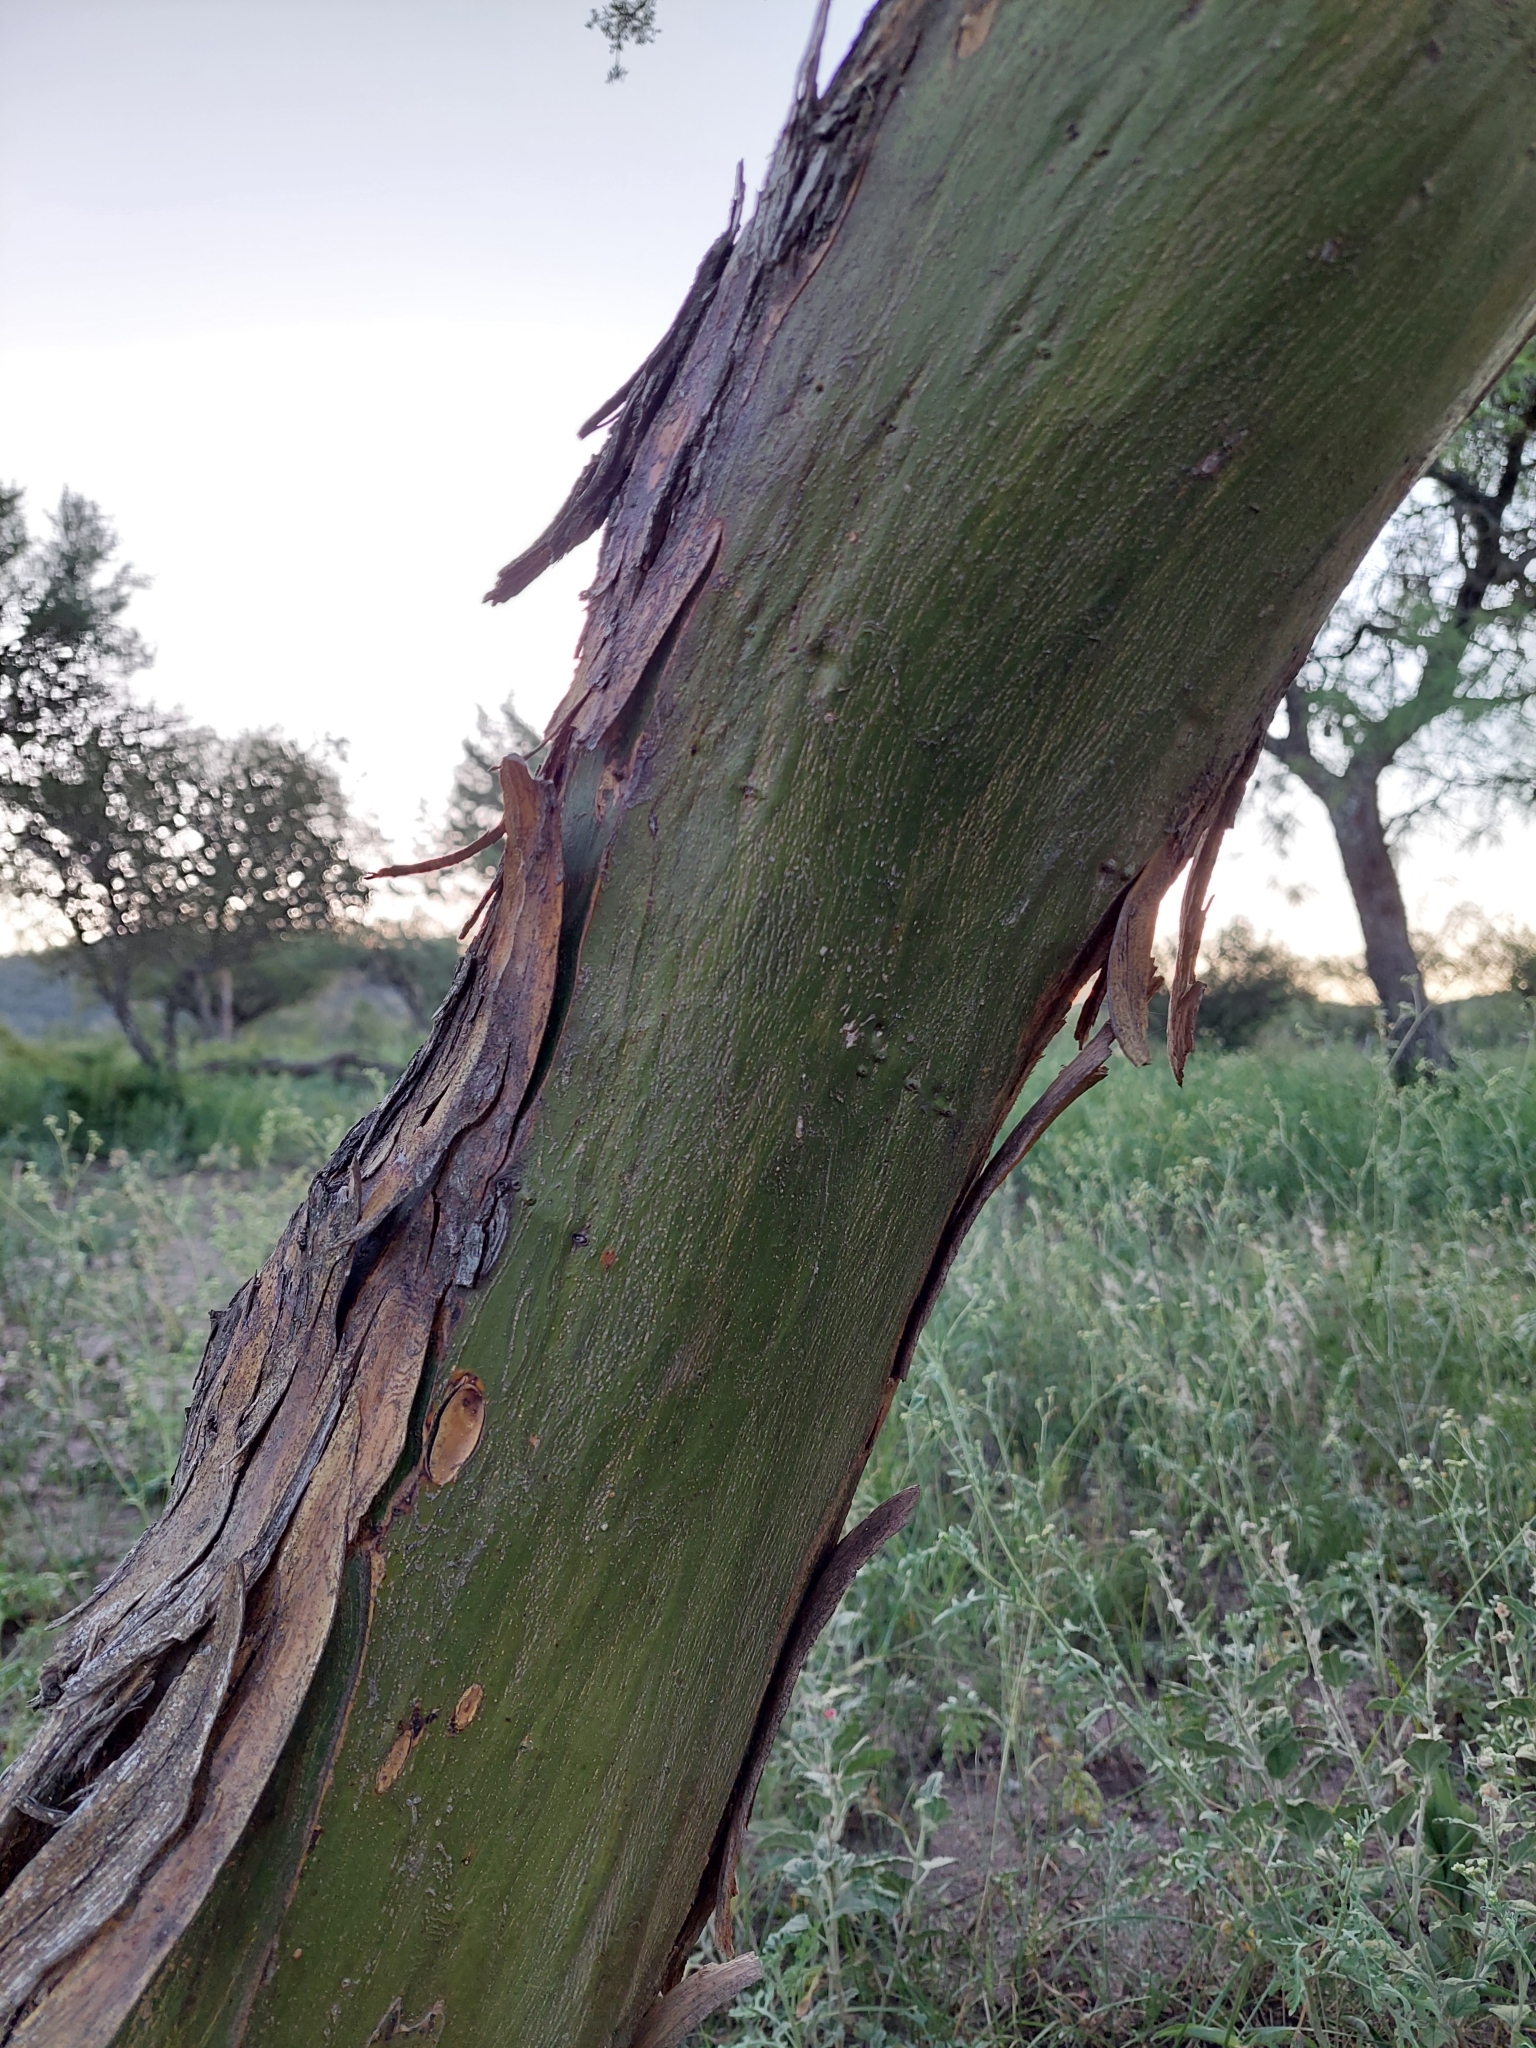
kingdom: Plantae
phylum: Tracheophyta
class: Magnoliopsida
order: Fabales
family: Fabaceae
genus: Geoffroea
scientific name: Geoffroea decorticans
